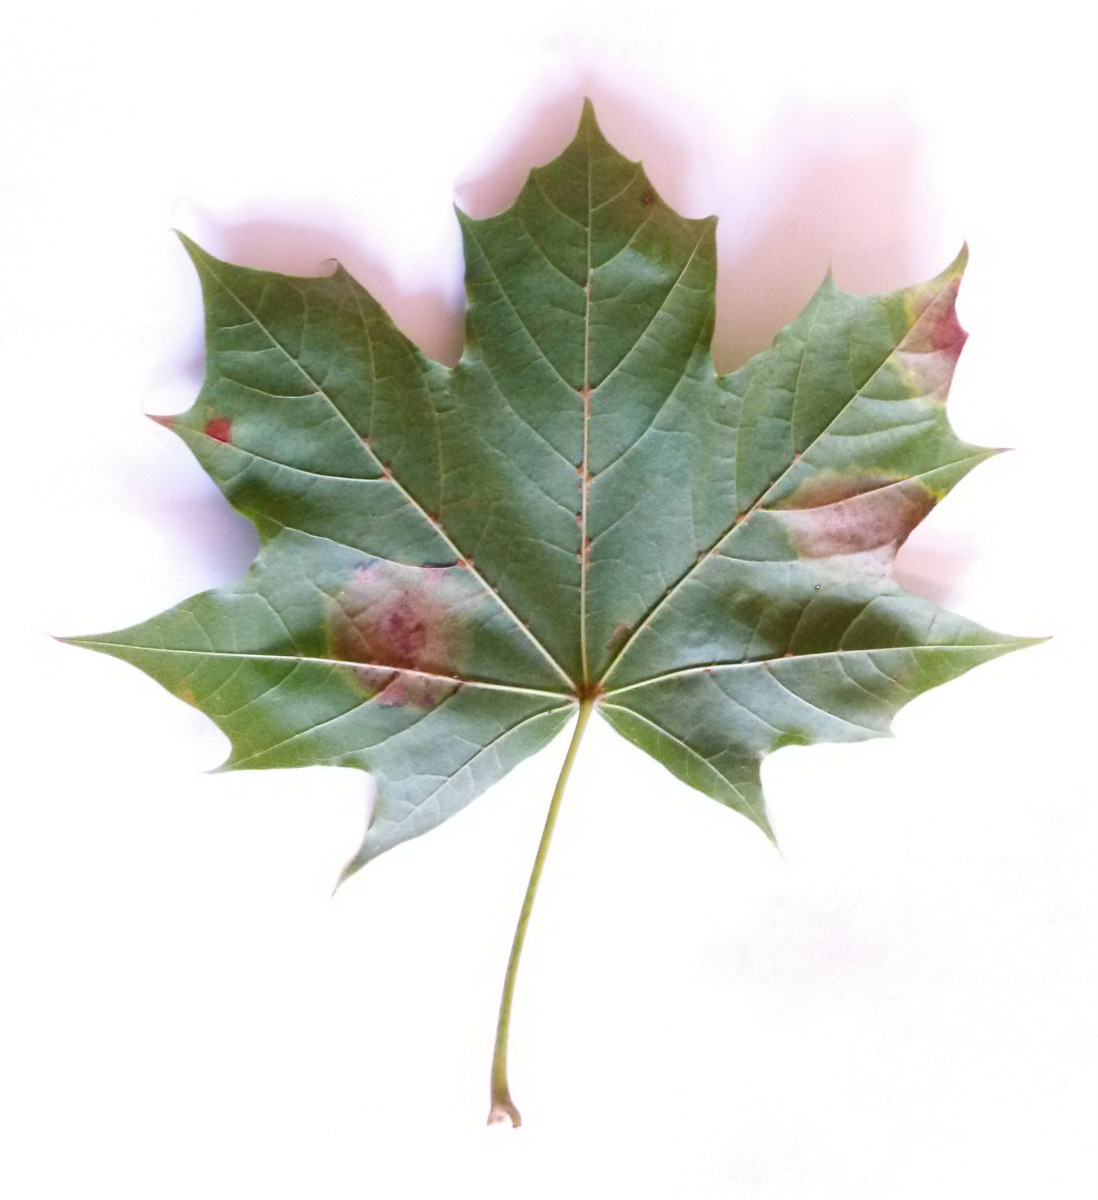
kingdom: Plantae
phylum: Tracheophyta
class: Magnoliopsida
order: Sapindales
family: Sapindaceae
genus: Acer
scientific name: Acer platanoides
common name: Norway maple
